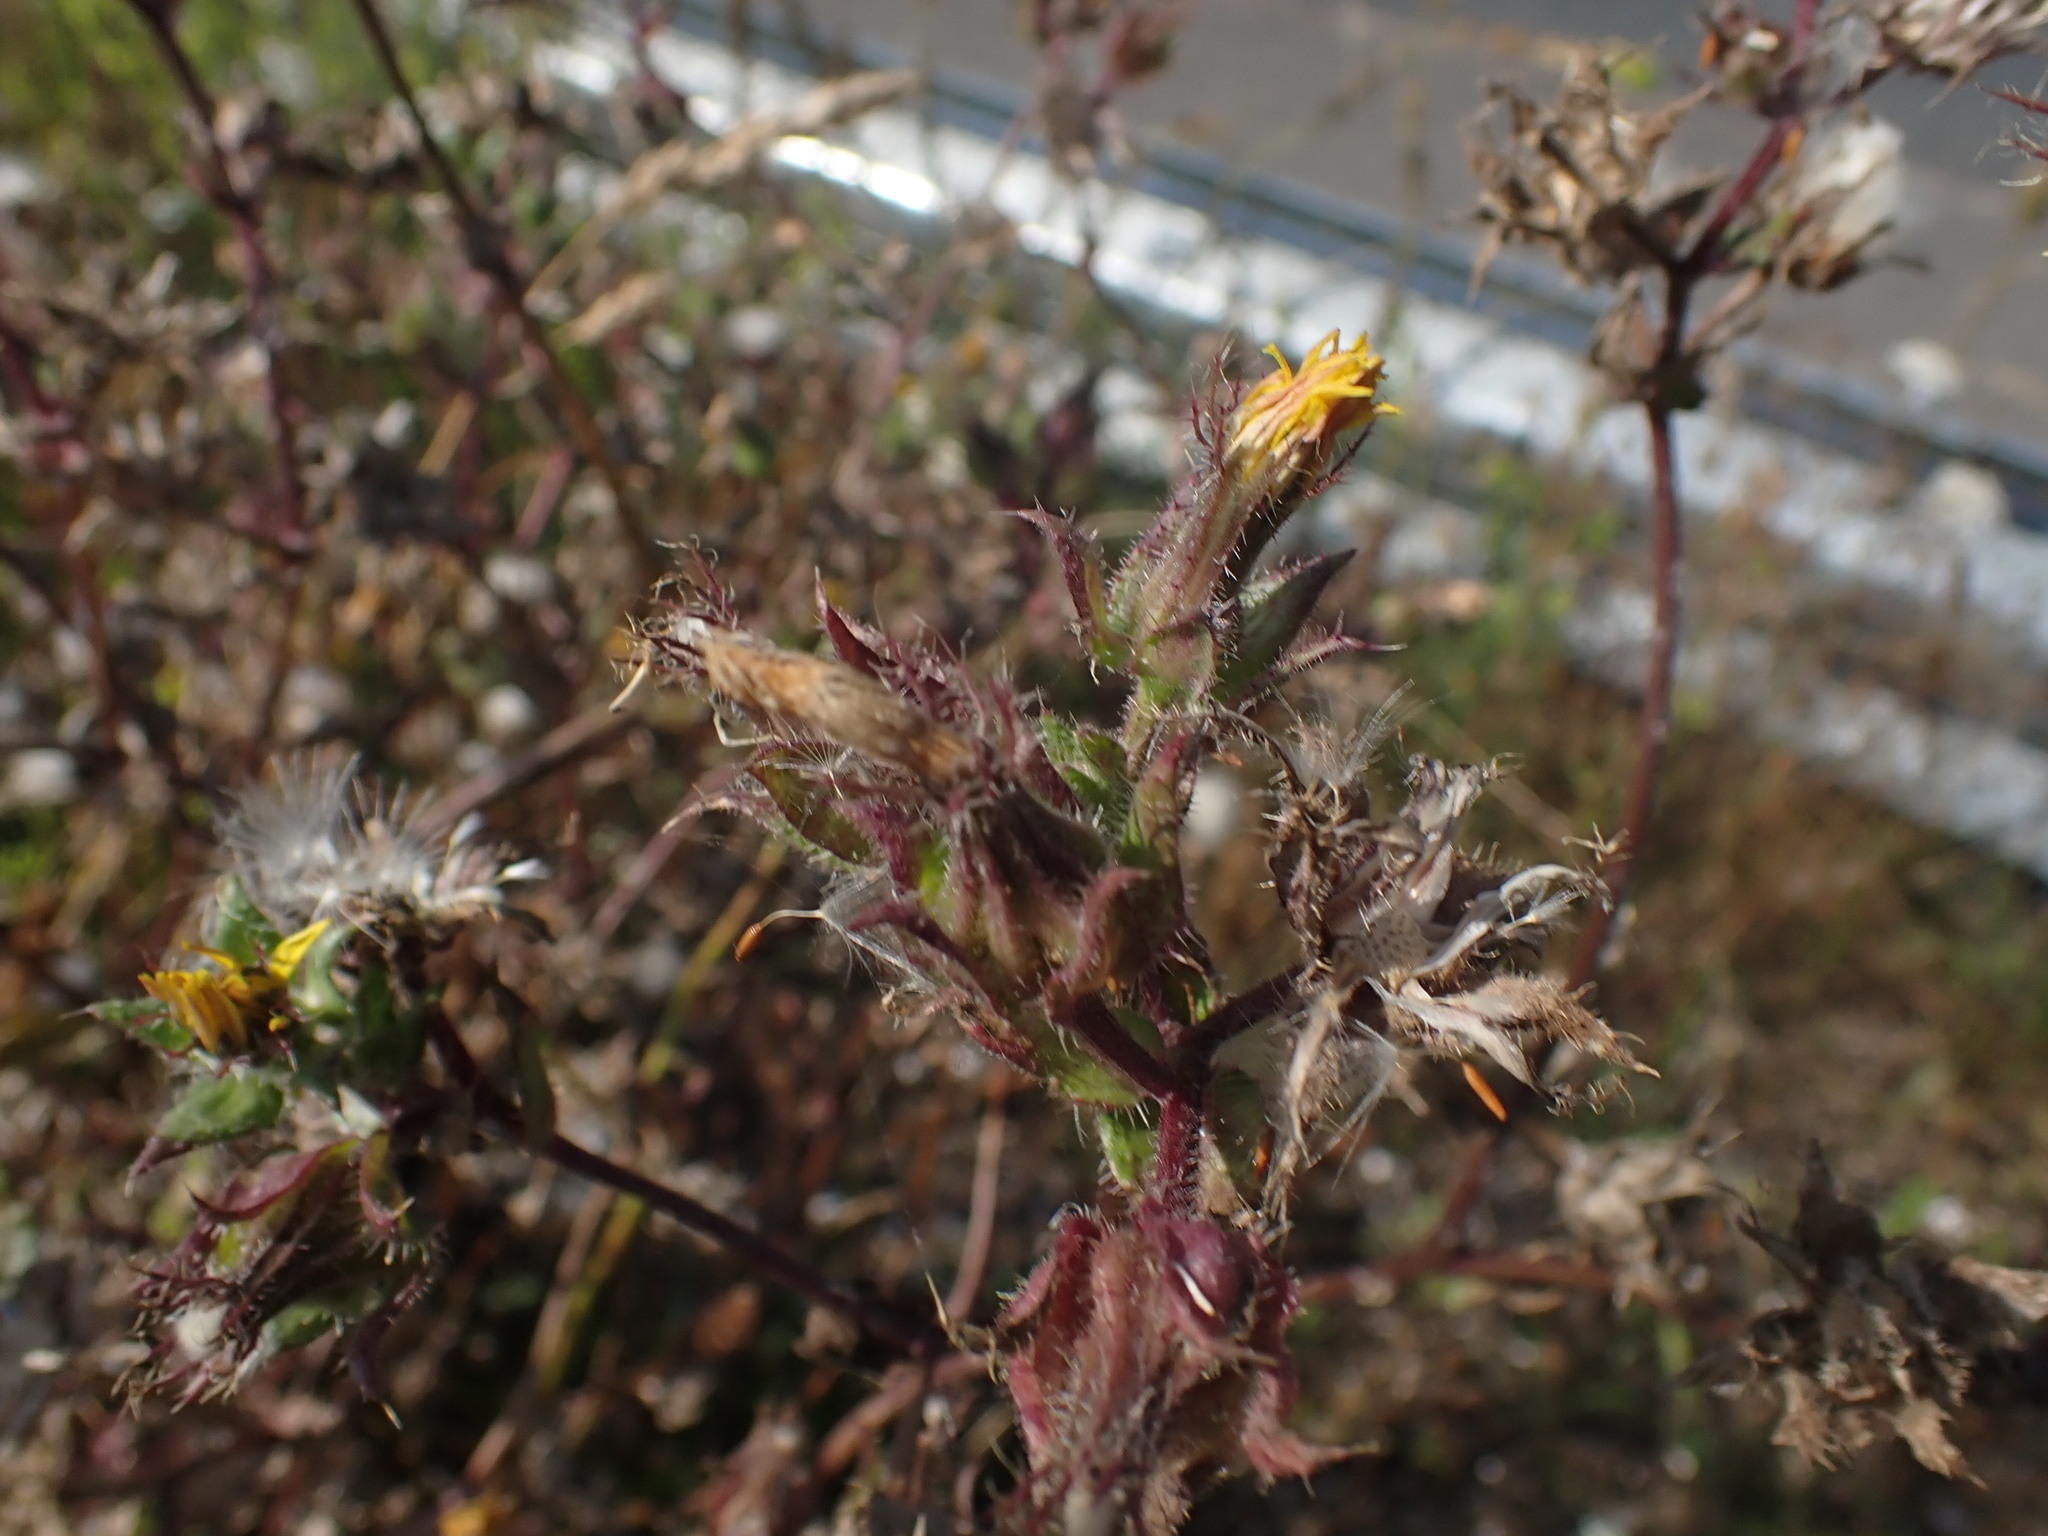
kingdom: Plantae
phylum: Tracheophyta
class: Magnoliopsida
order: Asterales
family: Asteraceae
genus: Helminthotheca
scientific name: Helminthotheca echioides
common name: Ox-tongue
